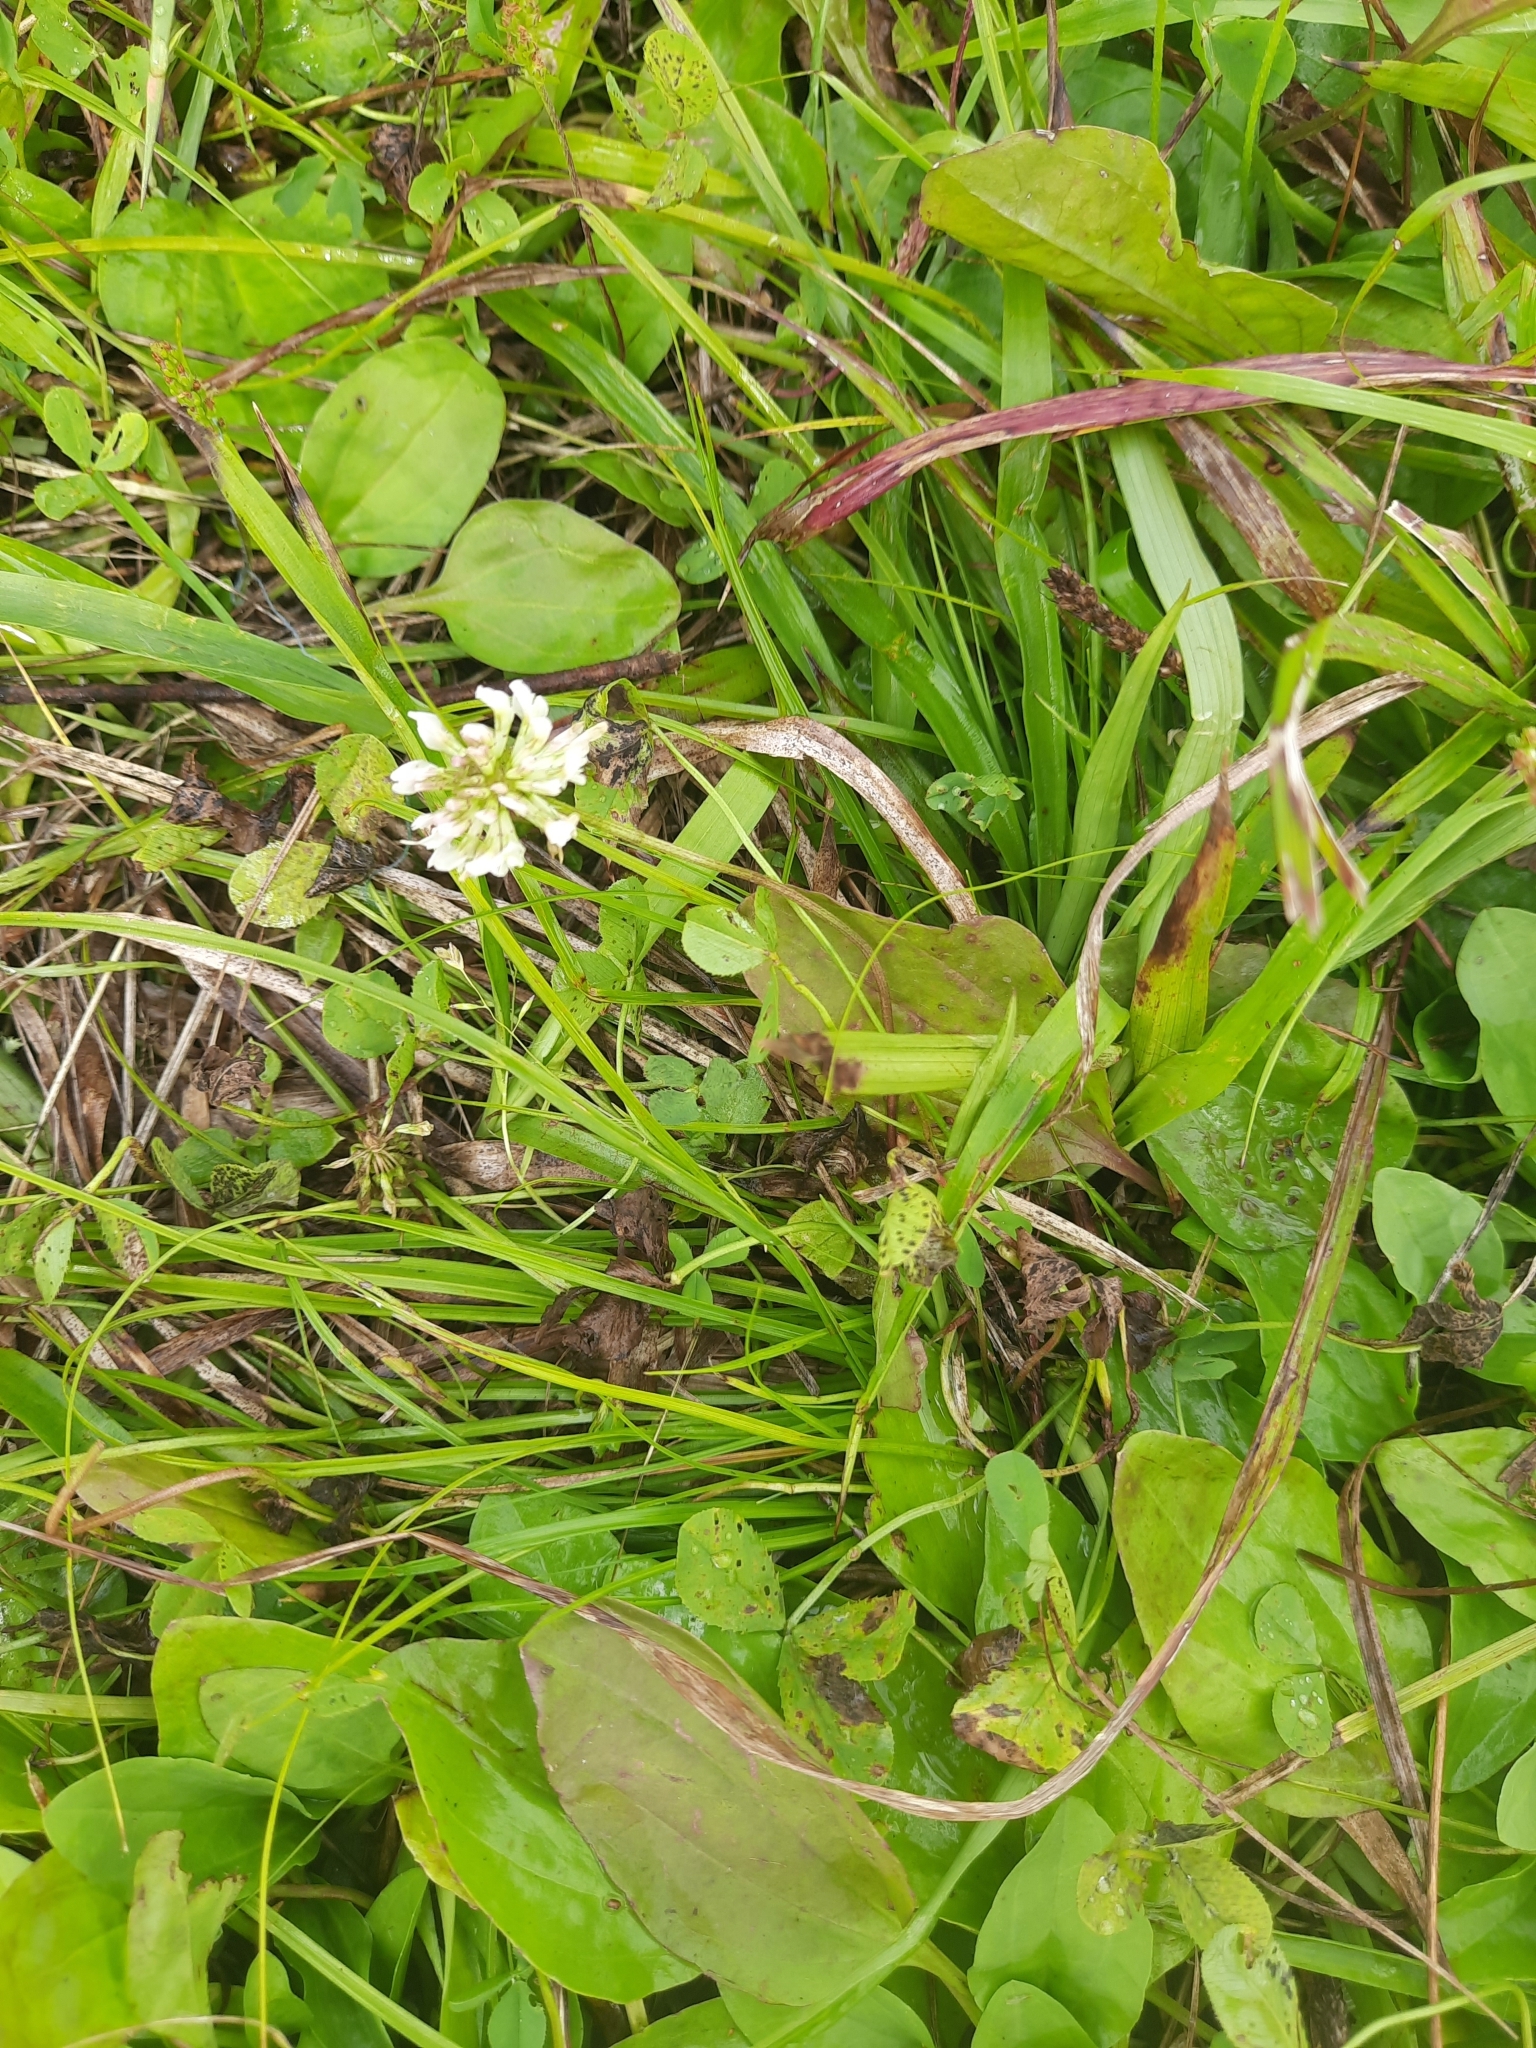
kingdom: Plantae
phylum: Tracheophyta
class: Magnoliopsida
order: Fabales
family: Fabaceae
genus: Trifolium
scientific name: Trifolium repens
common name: White clover
